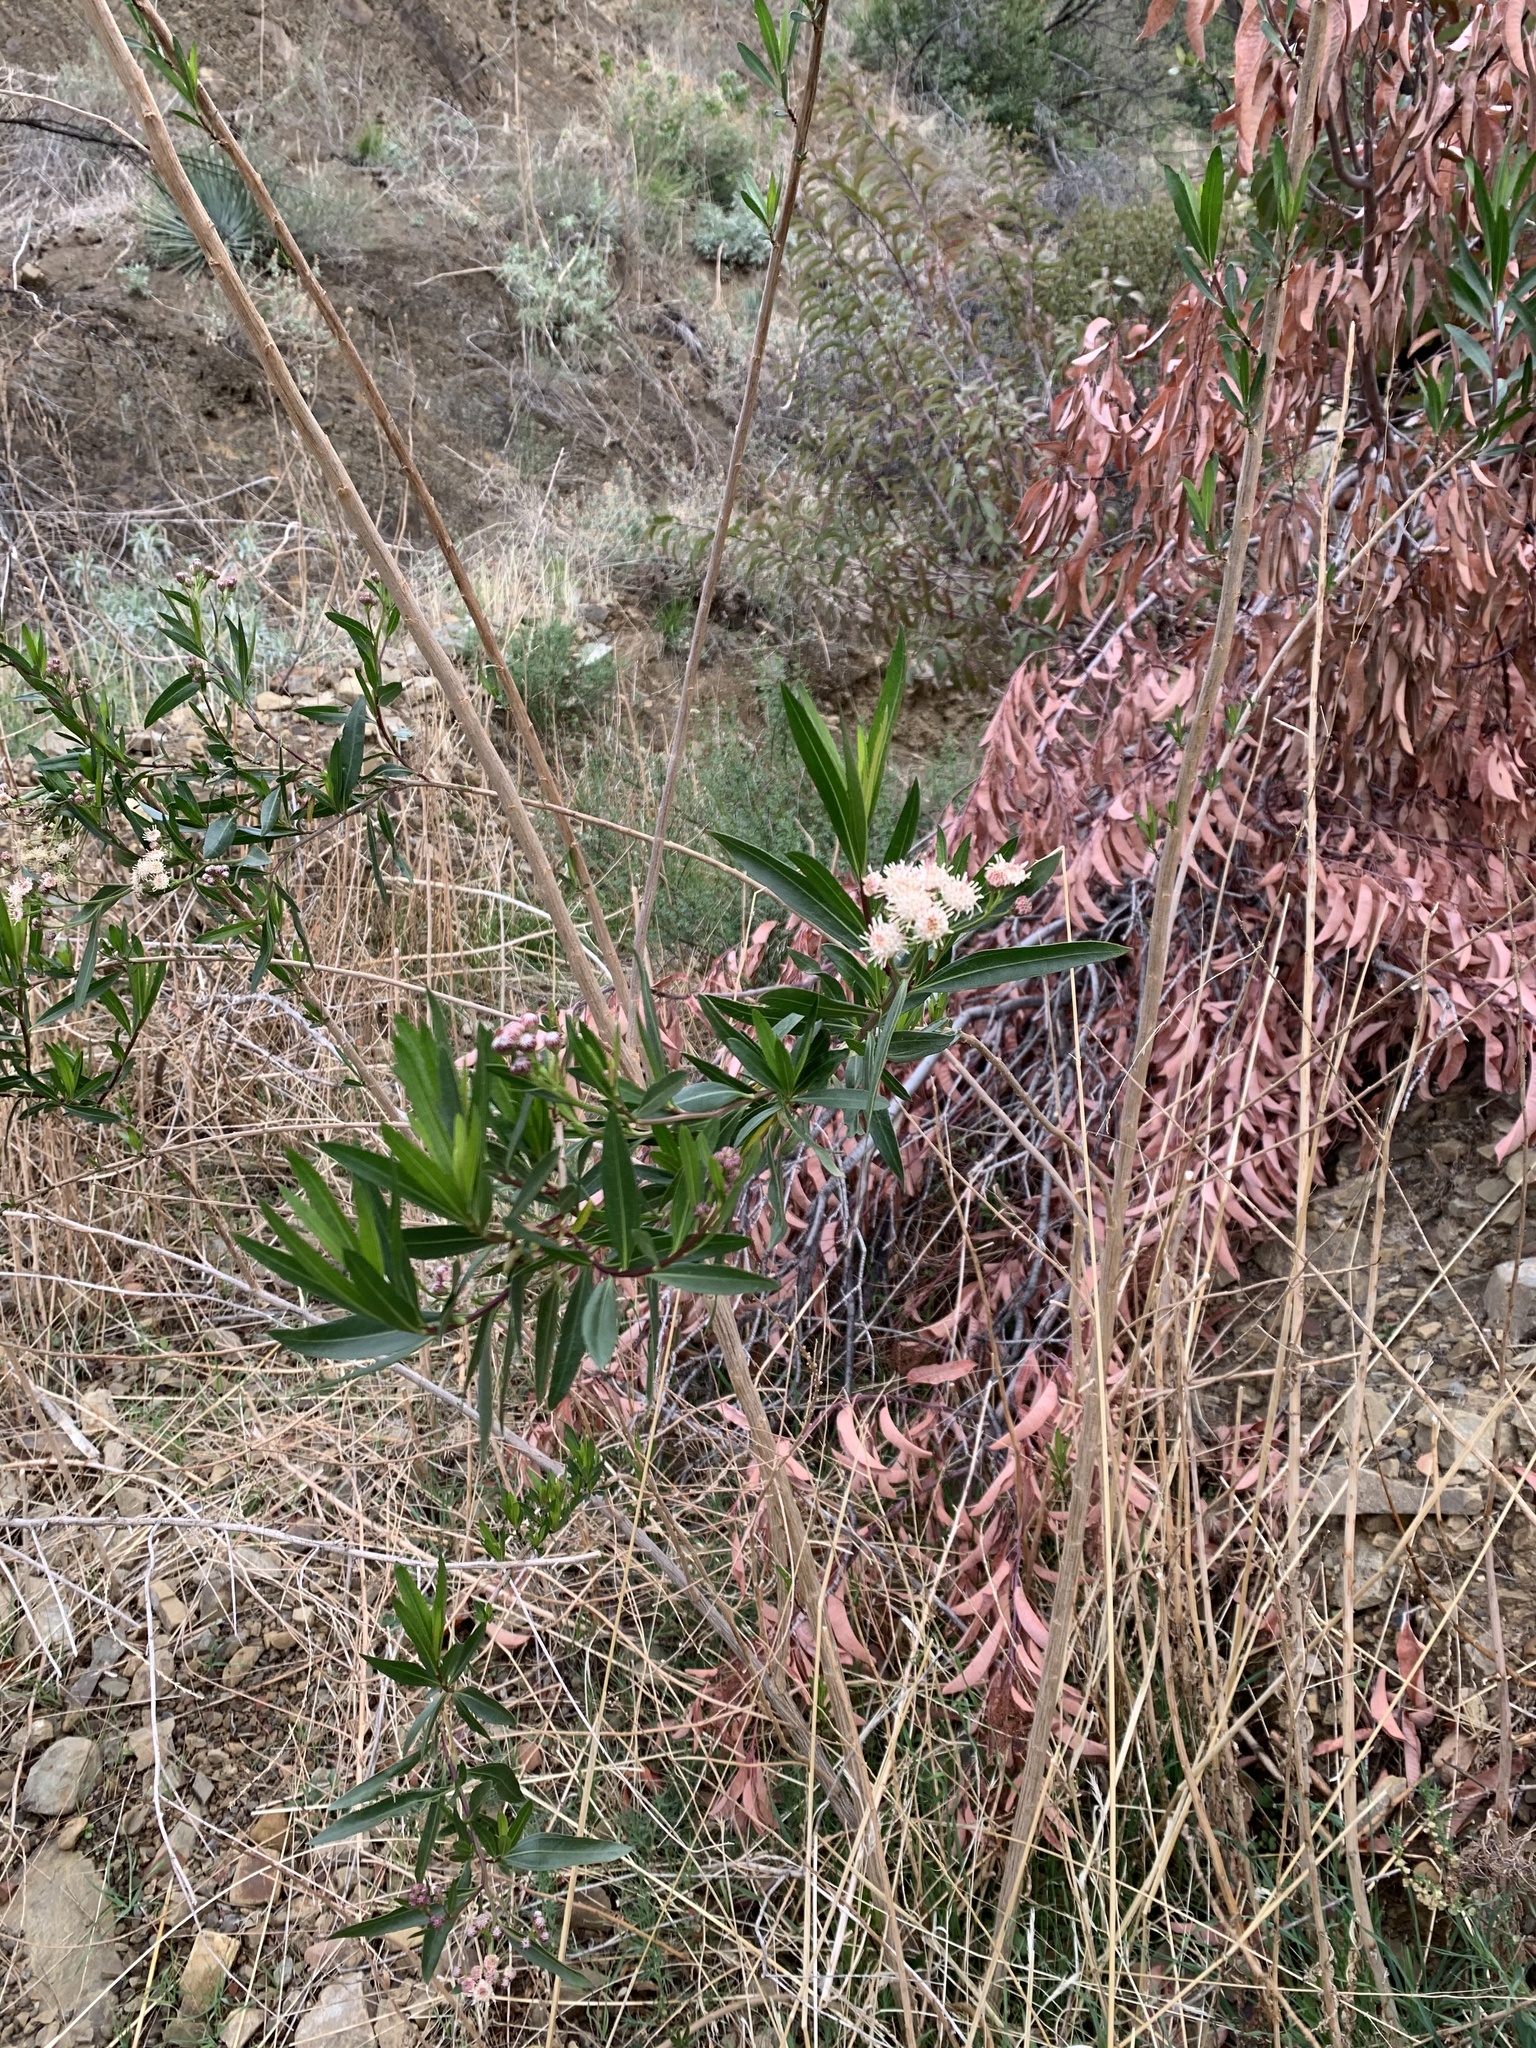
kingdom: Plantae
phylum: Tracheophyta
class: Magnoliopsida
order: Asterales
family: Asteraceae
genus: Baccharis
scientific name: Baccharis salicifolia
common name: Sticky baccharis
